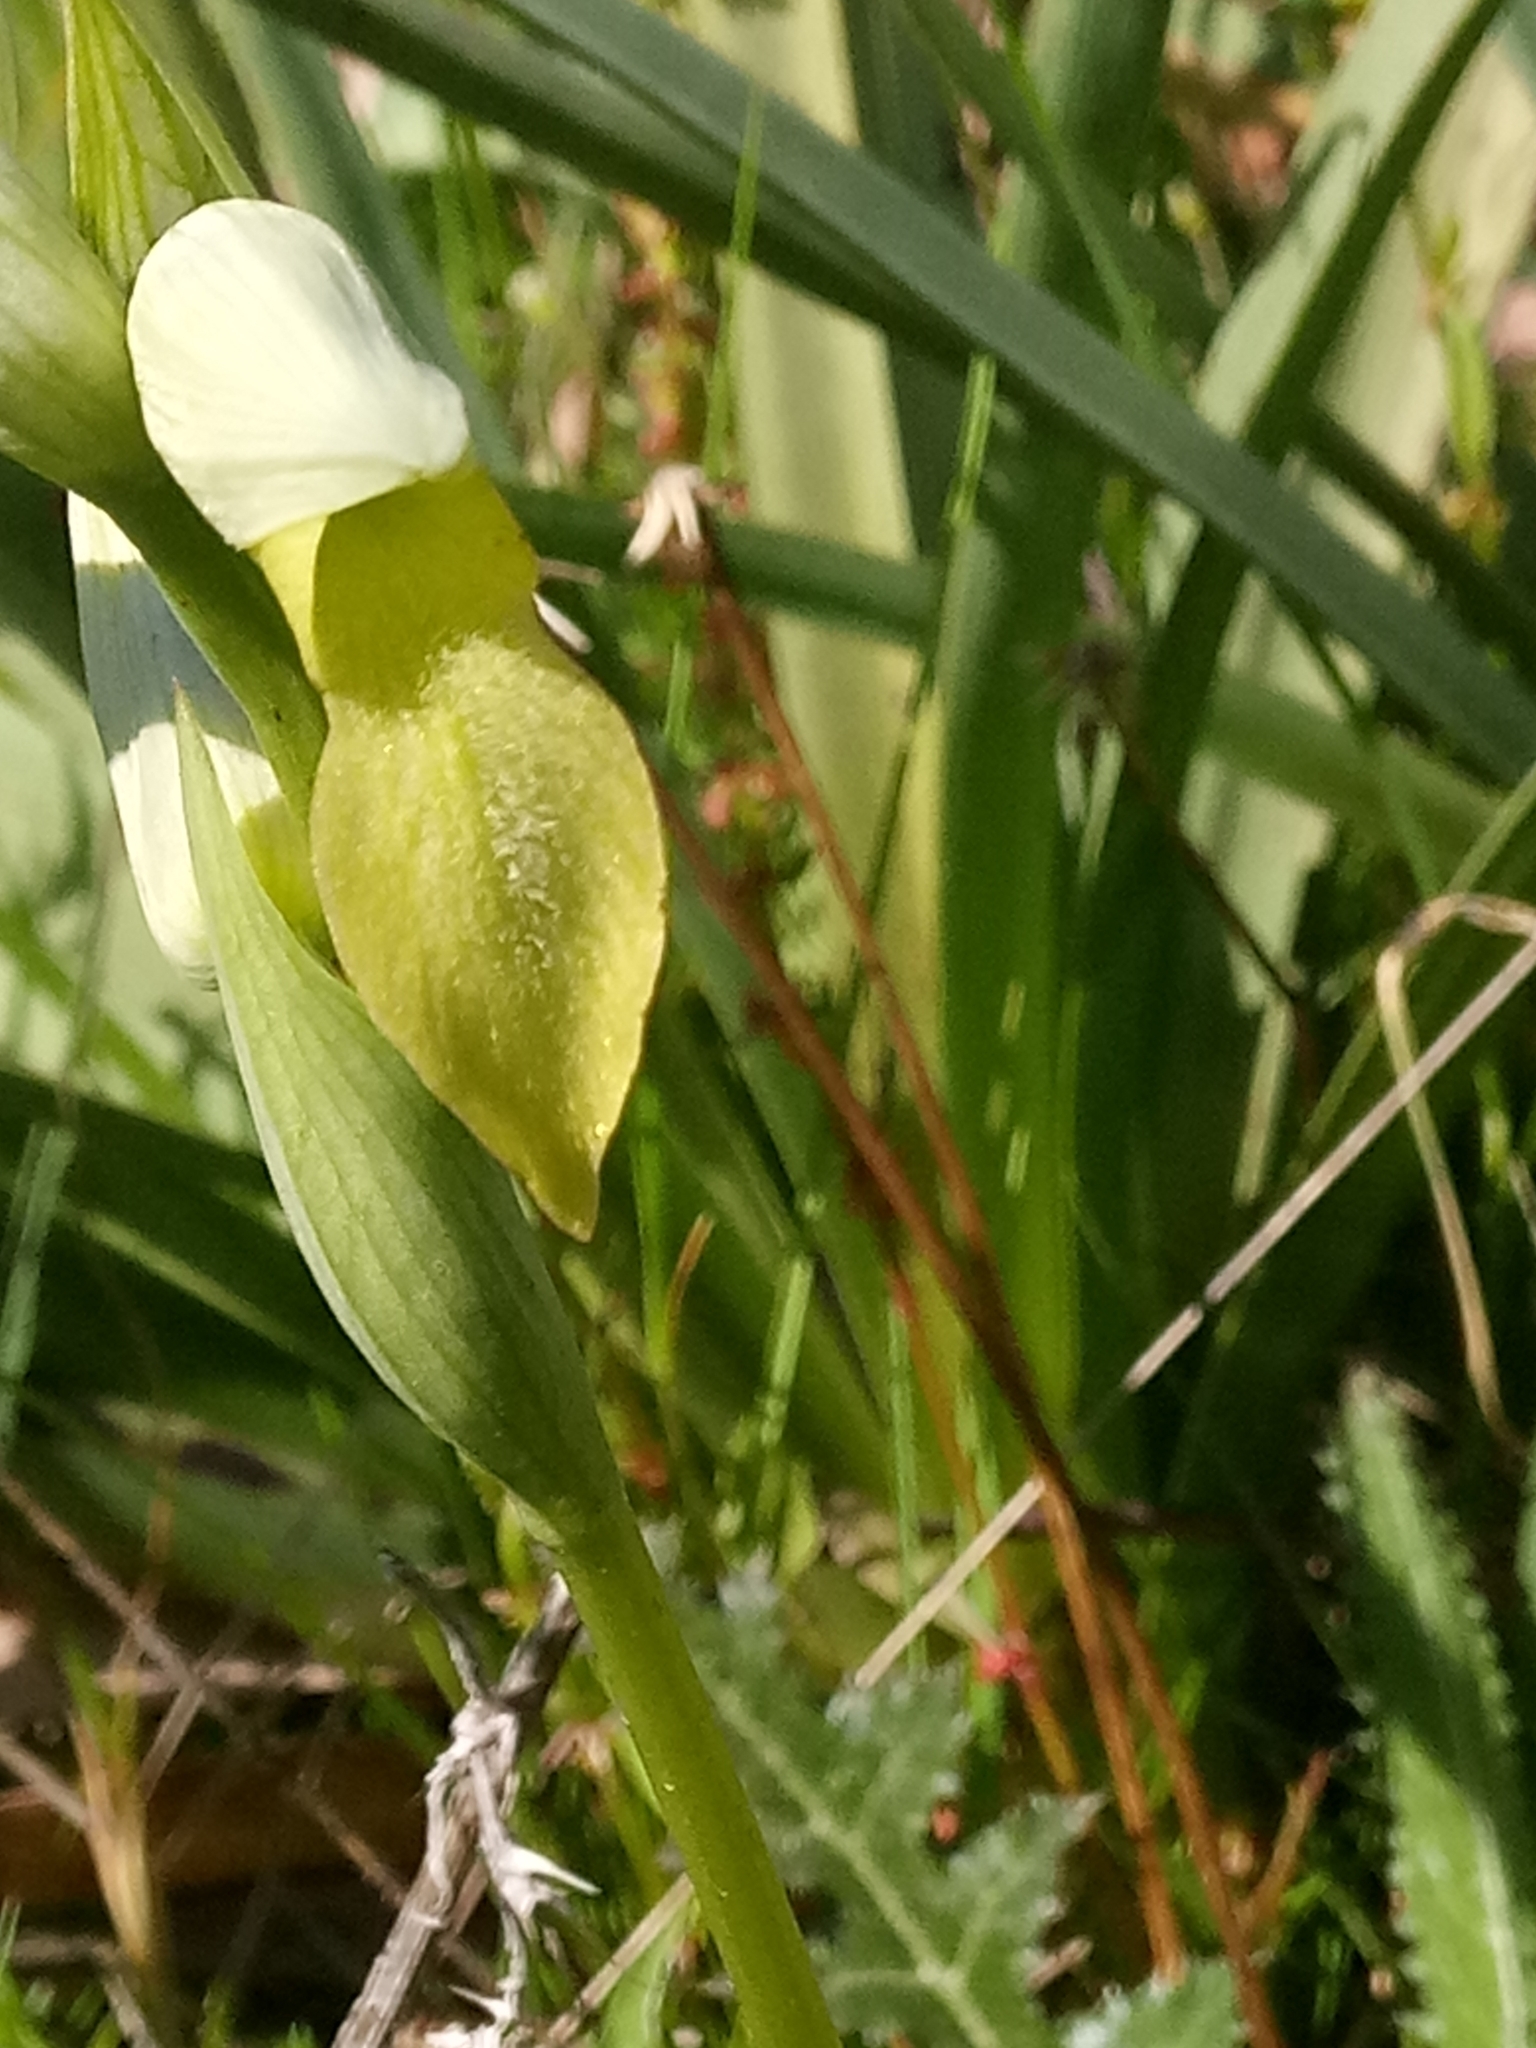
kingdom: Plantae
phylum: Tracheophyta
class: Liliopsida
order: Asparagales
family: Orchidaceae
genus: Serapias
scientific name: Serapias lingua
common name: Tongue-orchid
